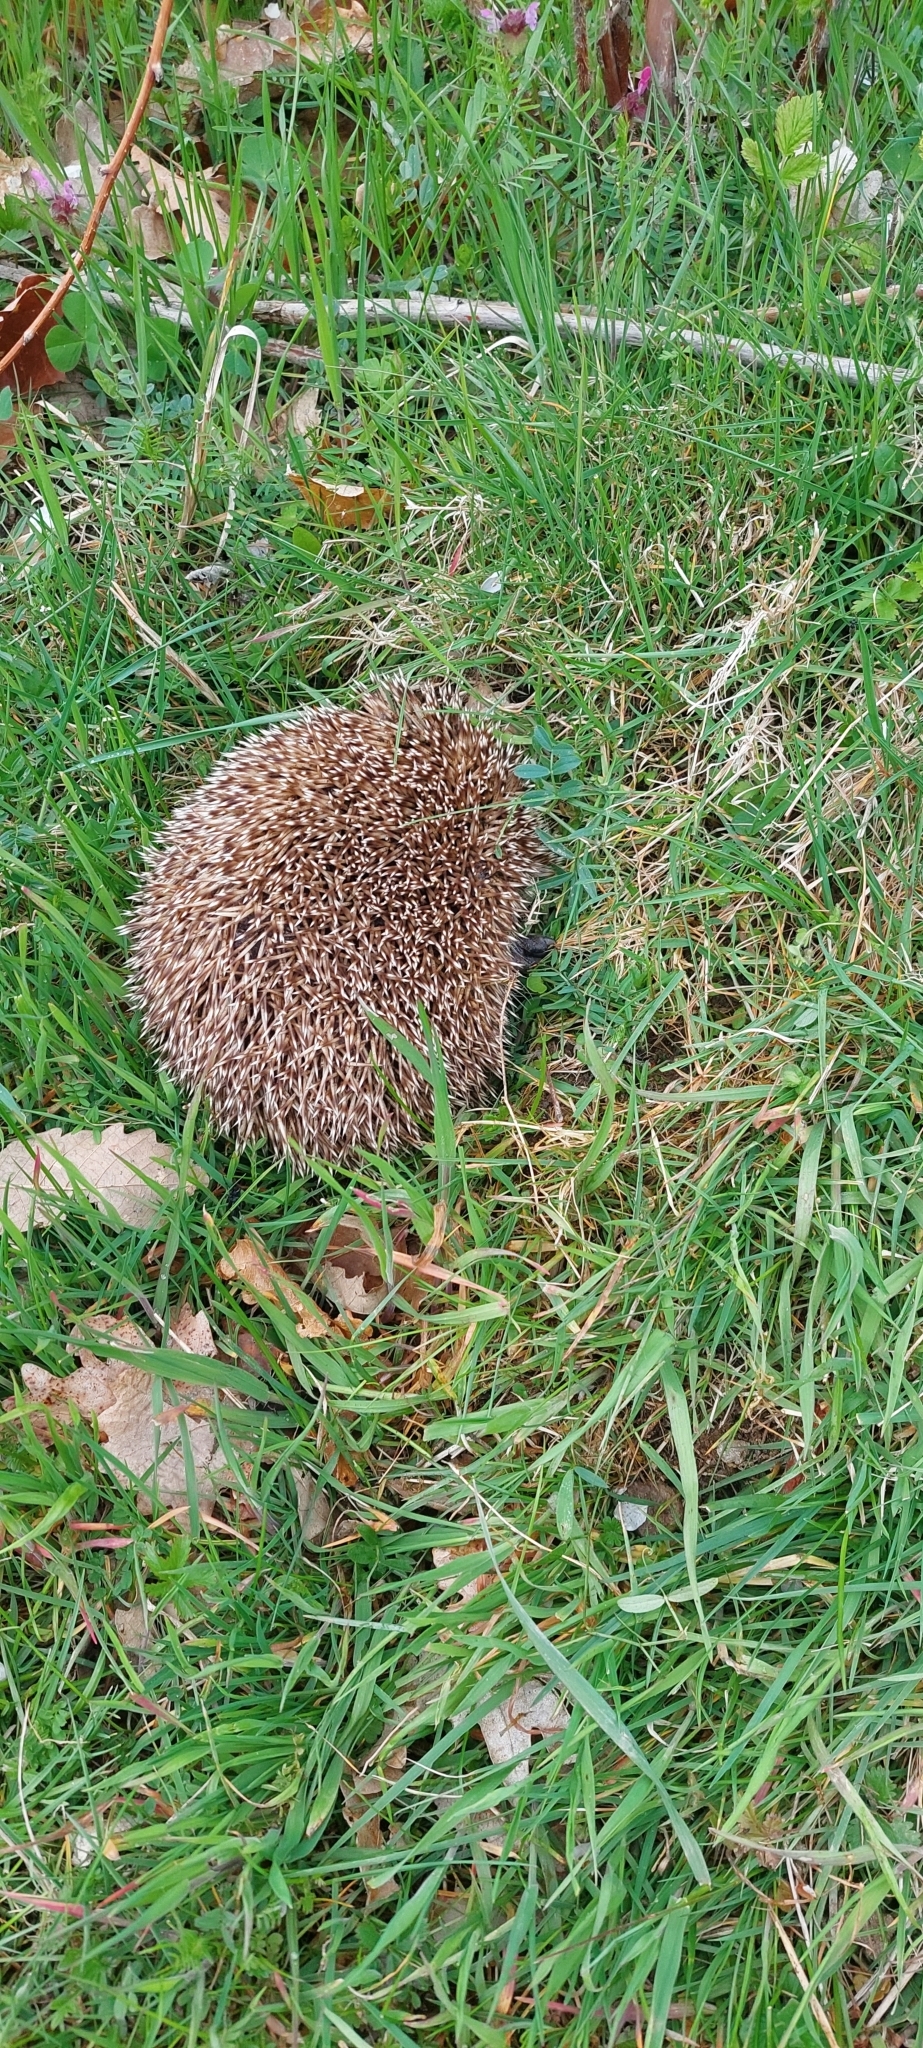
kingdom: Animalia
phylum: Chordata
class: Mammalia
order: Erinaceomorpha
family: Erinaceidae
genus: Erinaceus
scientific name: Erinaceus roumanicus
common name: Northern white-breasted hedgehog
